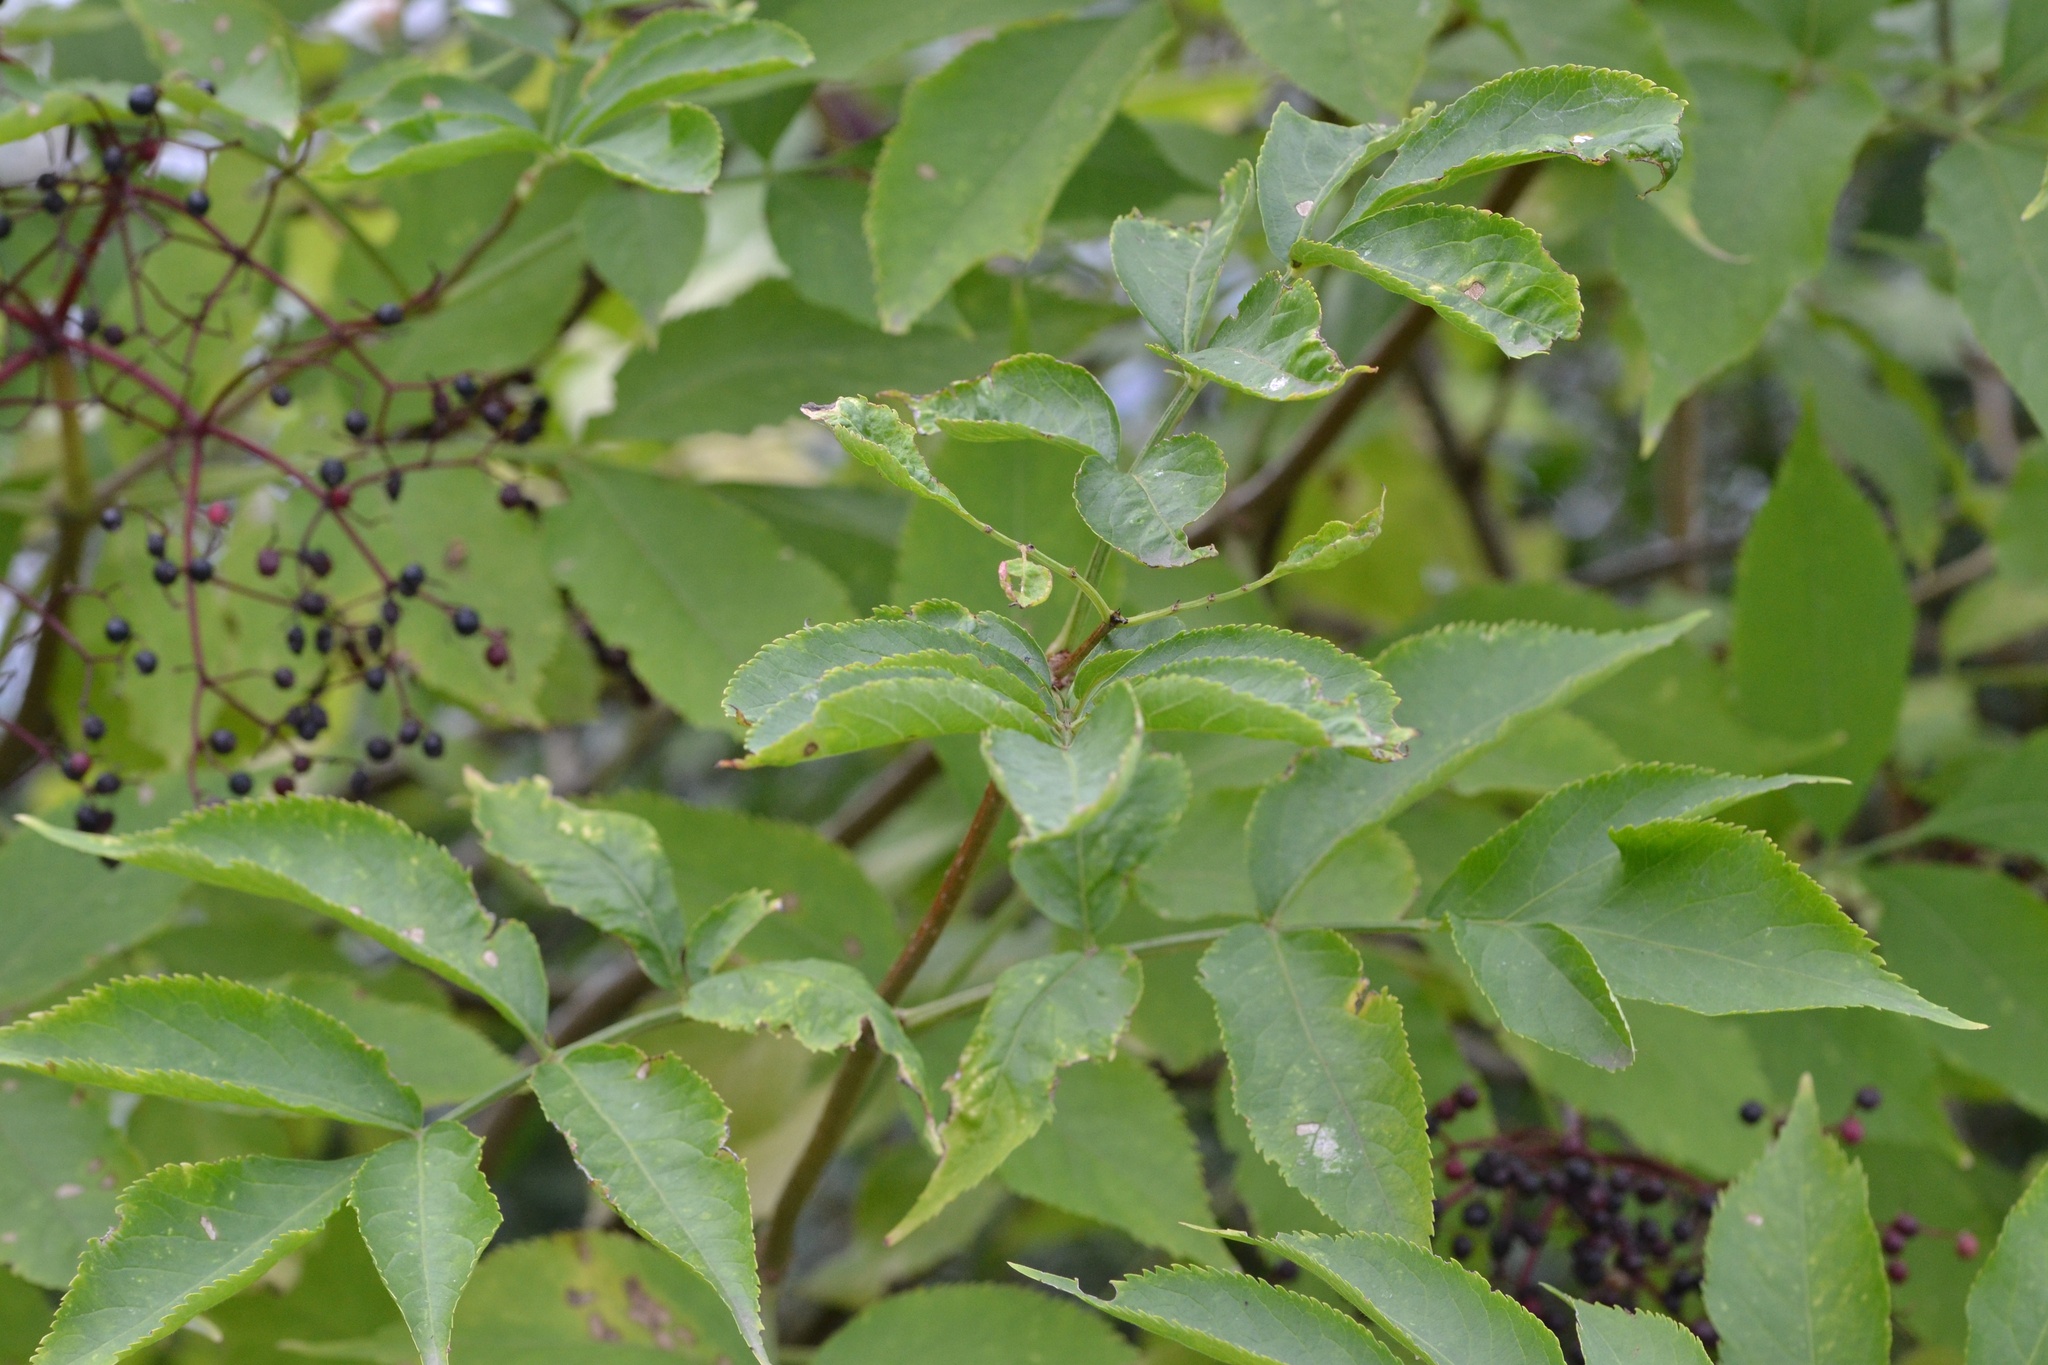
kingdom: Plantae
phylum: Tracheophyta
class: Magnoliopsida
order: Dipsacales
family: Viburnaceae
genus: Sambucus
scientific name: Sambucus nigra
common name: Elder
